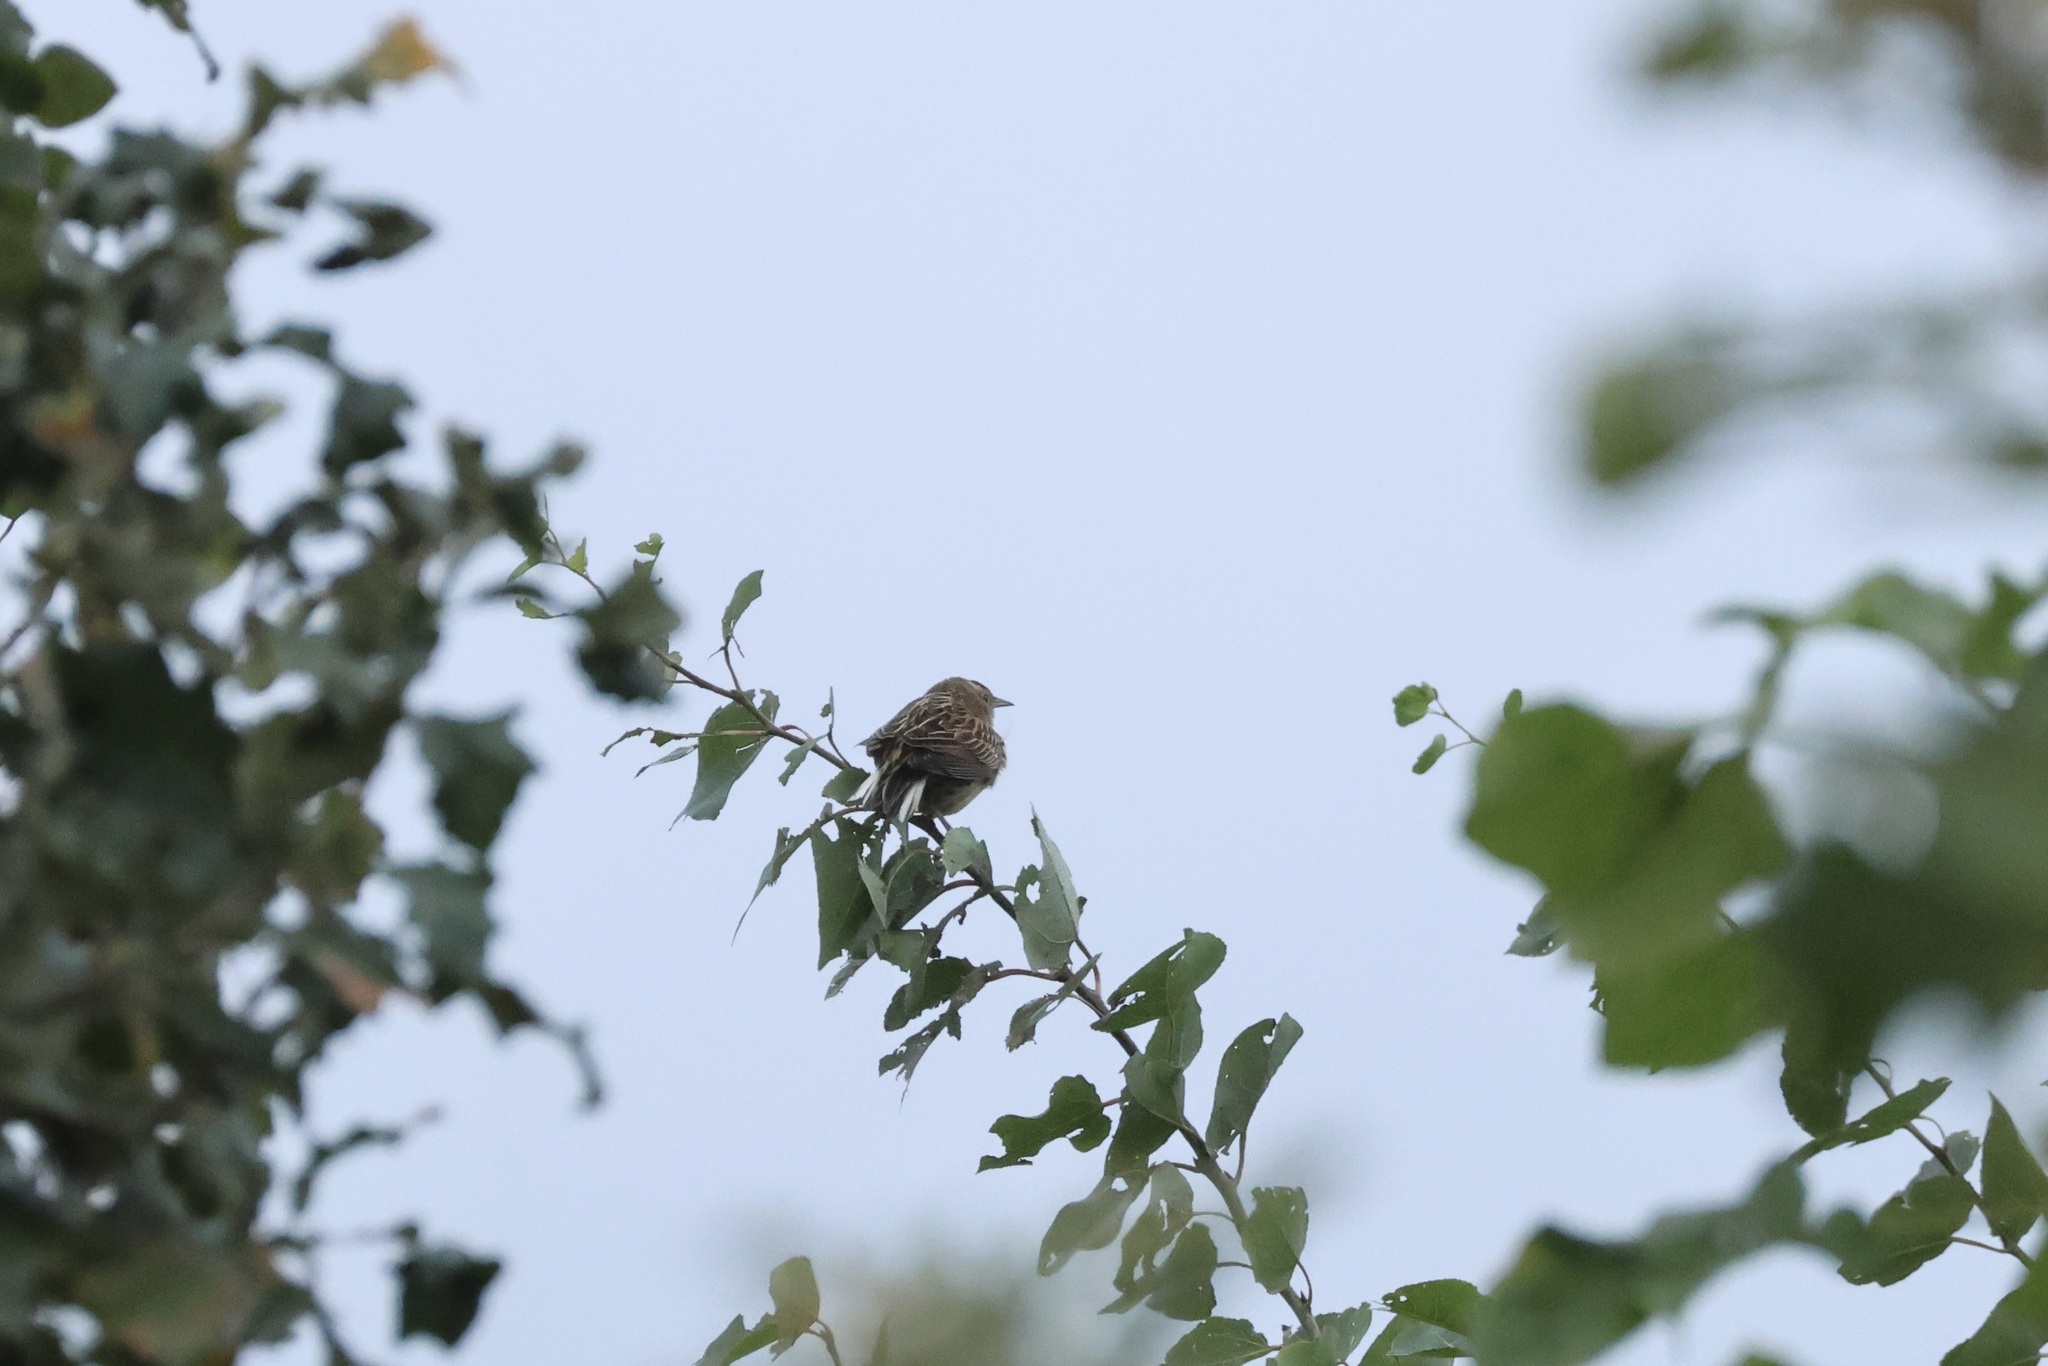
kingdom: Animalia
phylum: Chordata
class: Aves
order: Passeriformes
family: Icteridae
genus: Sturnella
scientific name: Sturnella magna
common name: Eastern meadowlark
